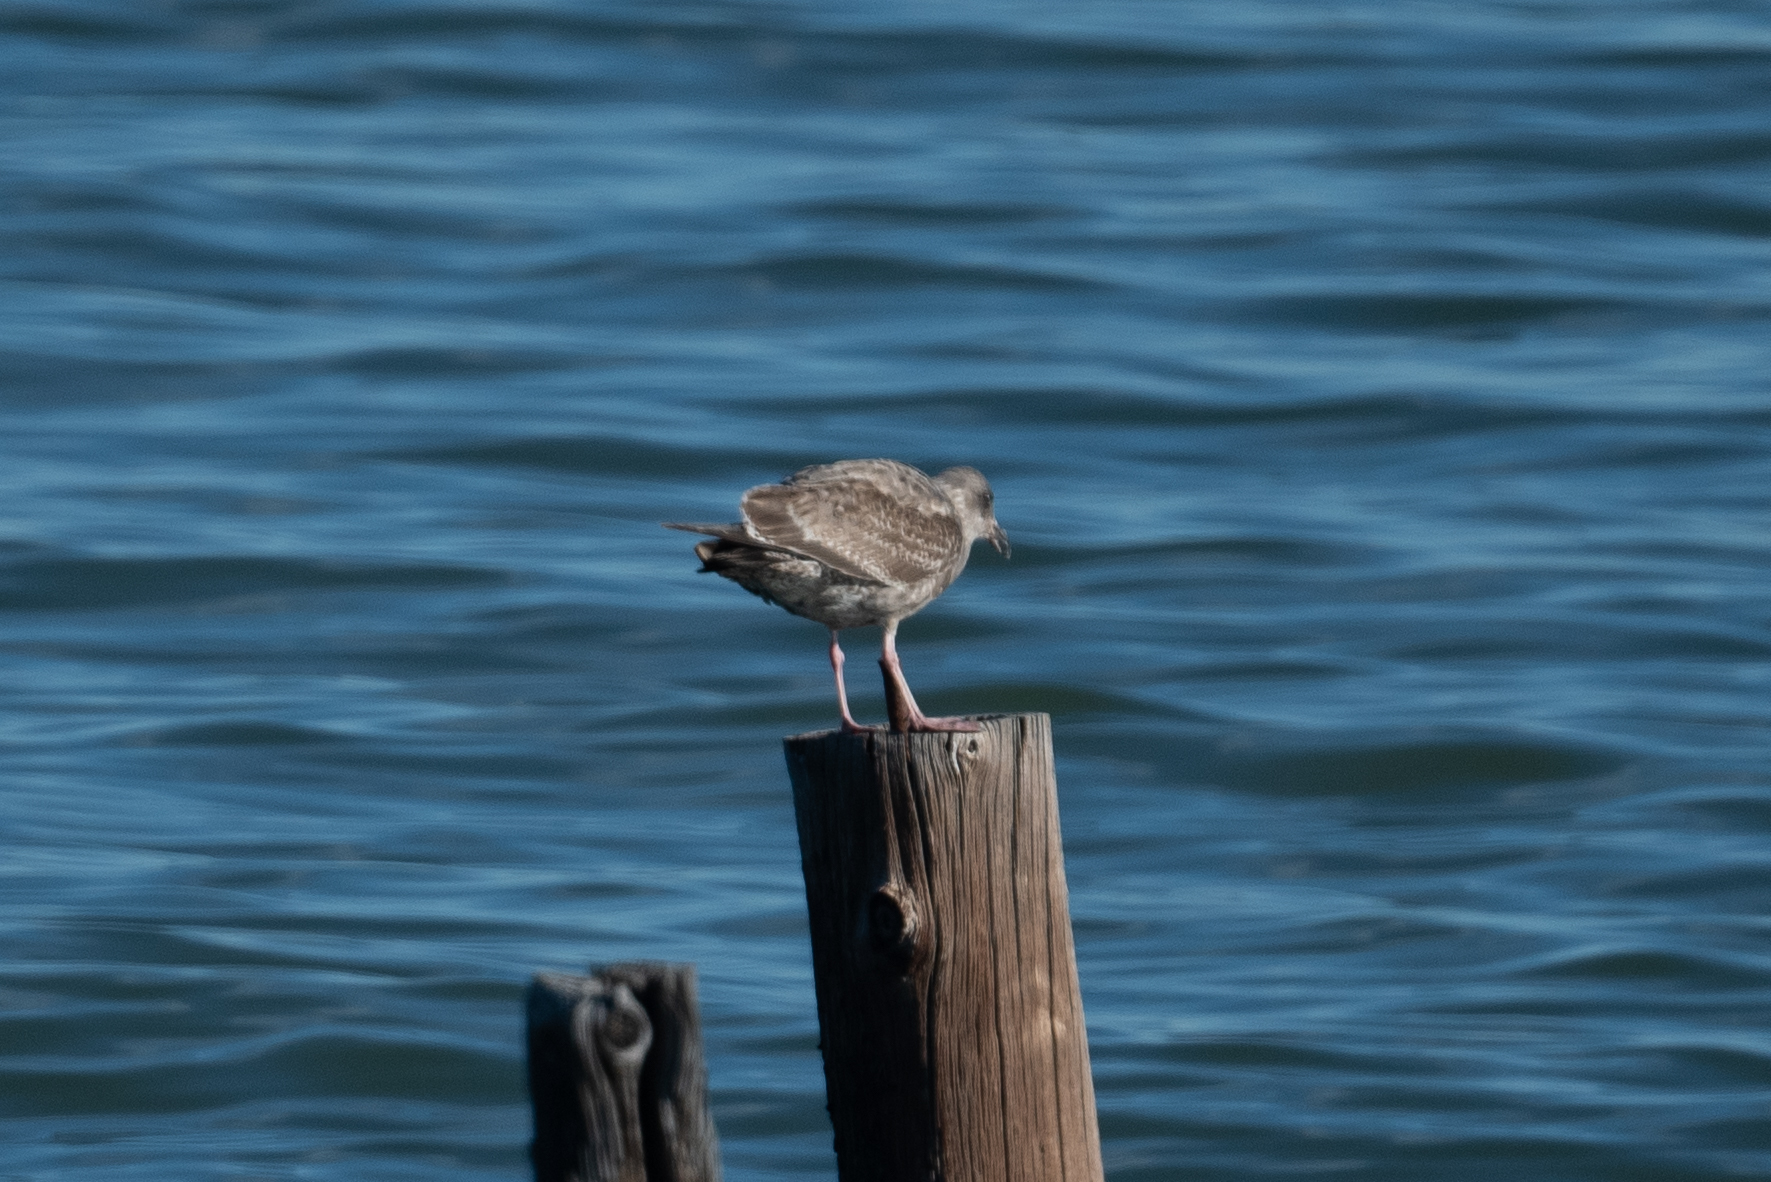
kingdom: Animalia
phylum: Chordata
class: Aves
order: Charadriiformes
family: Laridae
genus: Larus
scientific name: Larus occidentalis
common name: Western gull
